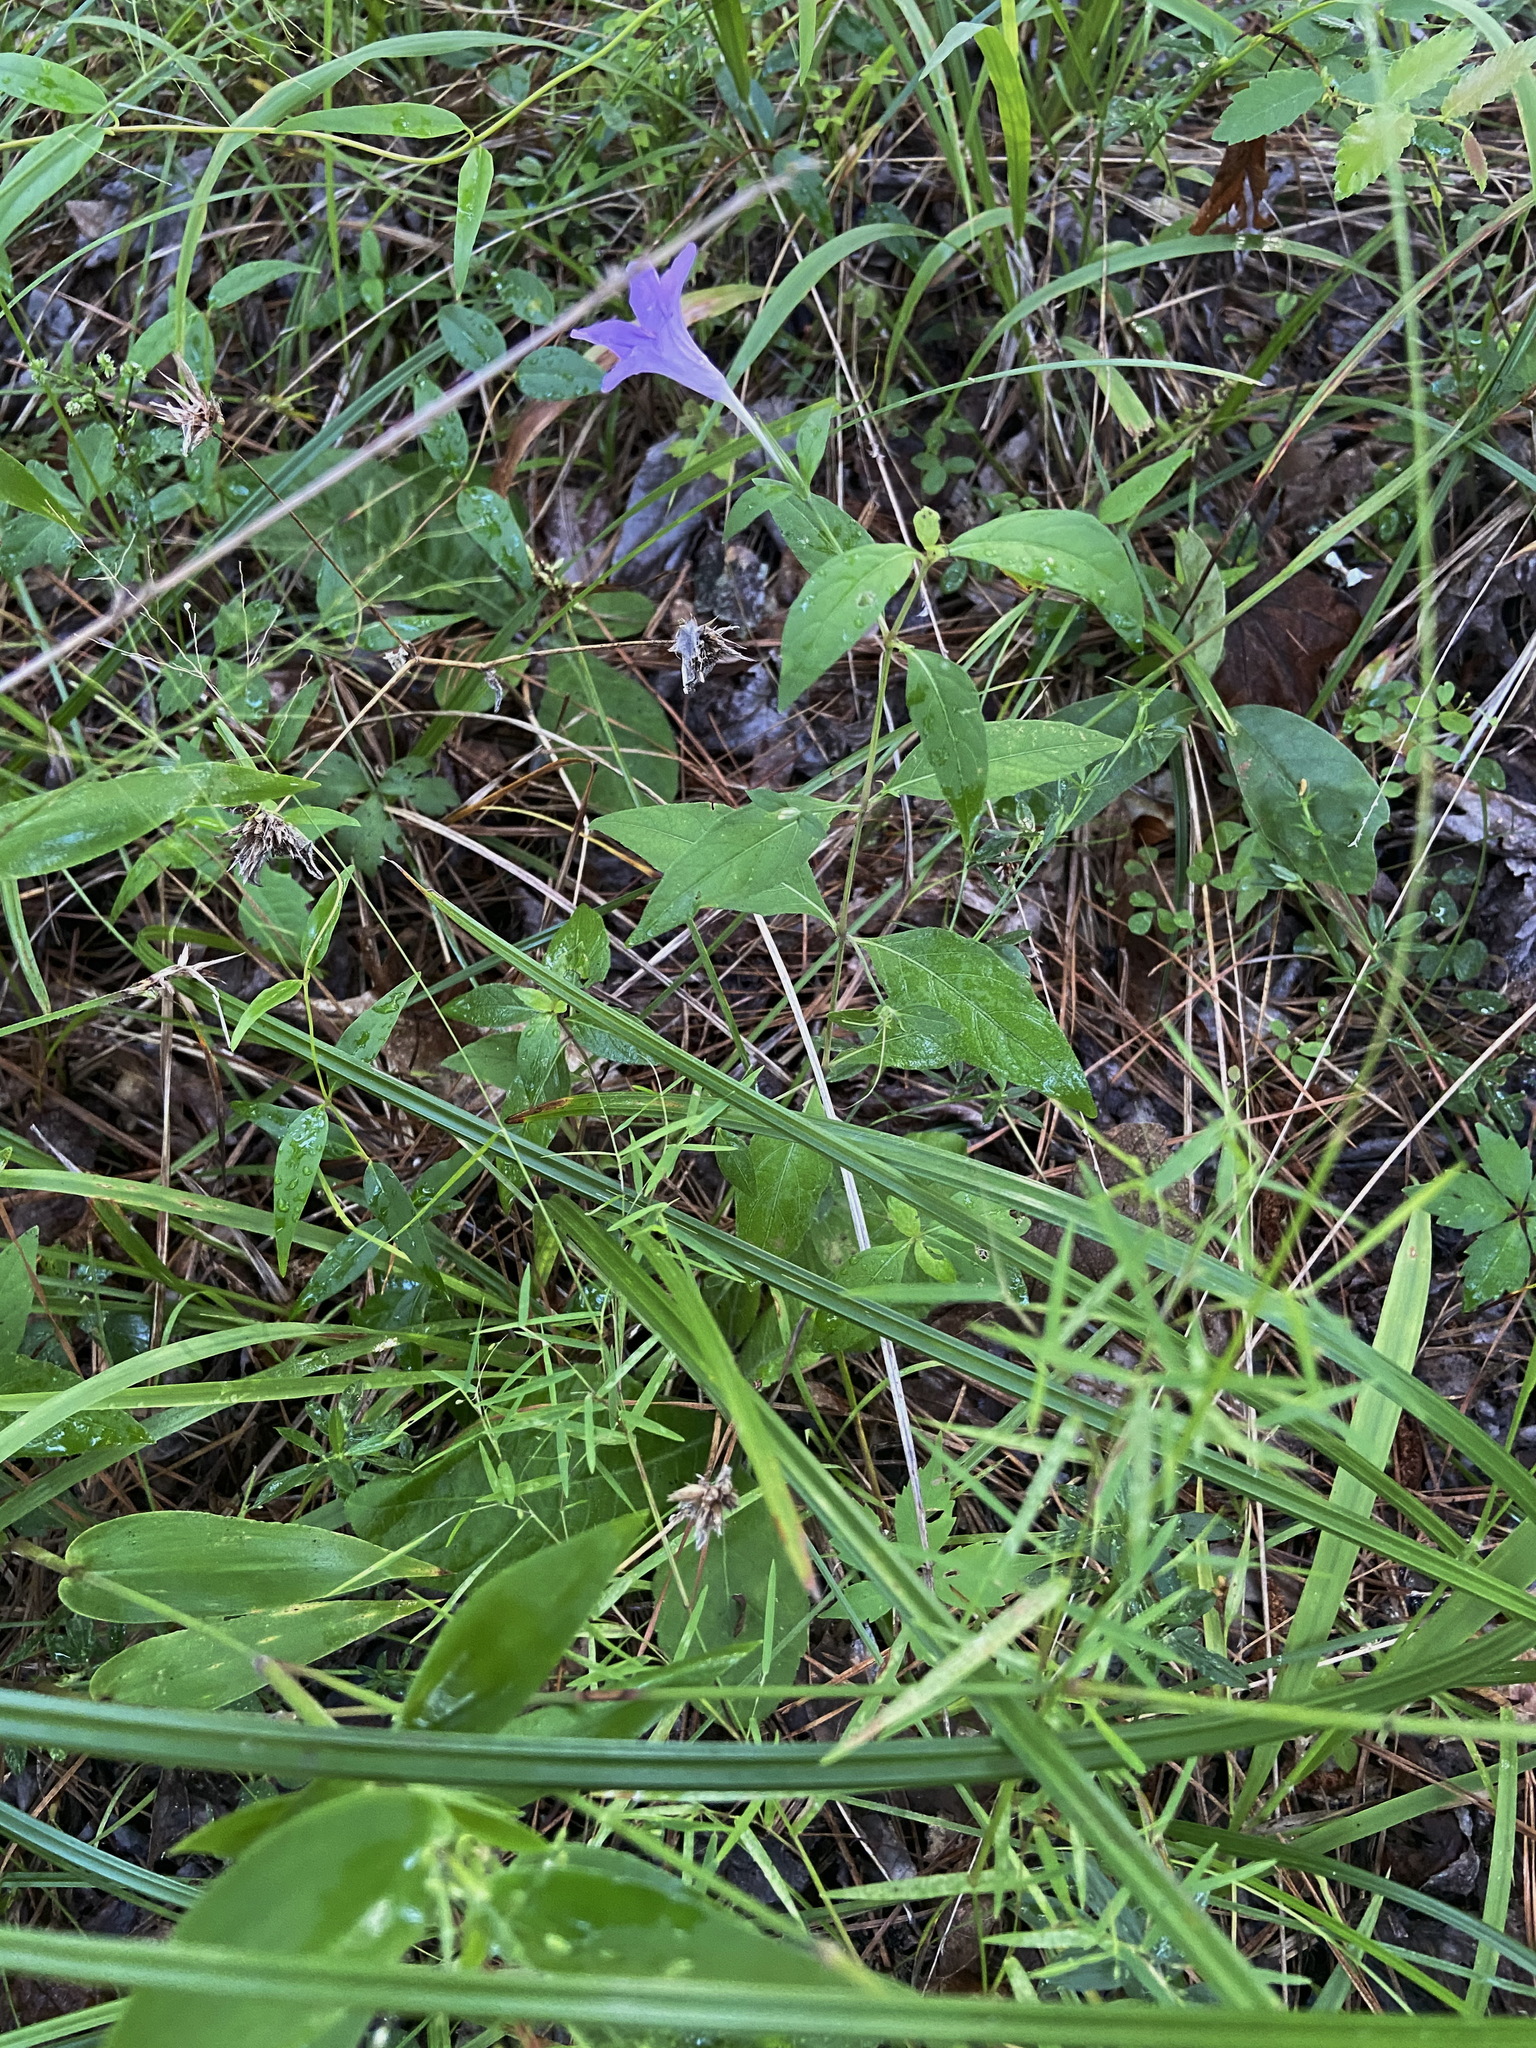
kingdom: Plantae
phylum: Tracheophyta
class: Magnoliopsida
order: Lamiales
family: Acanthaceae
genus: Ruellia
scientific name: Ruellia pedunculata
